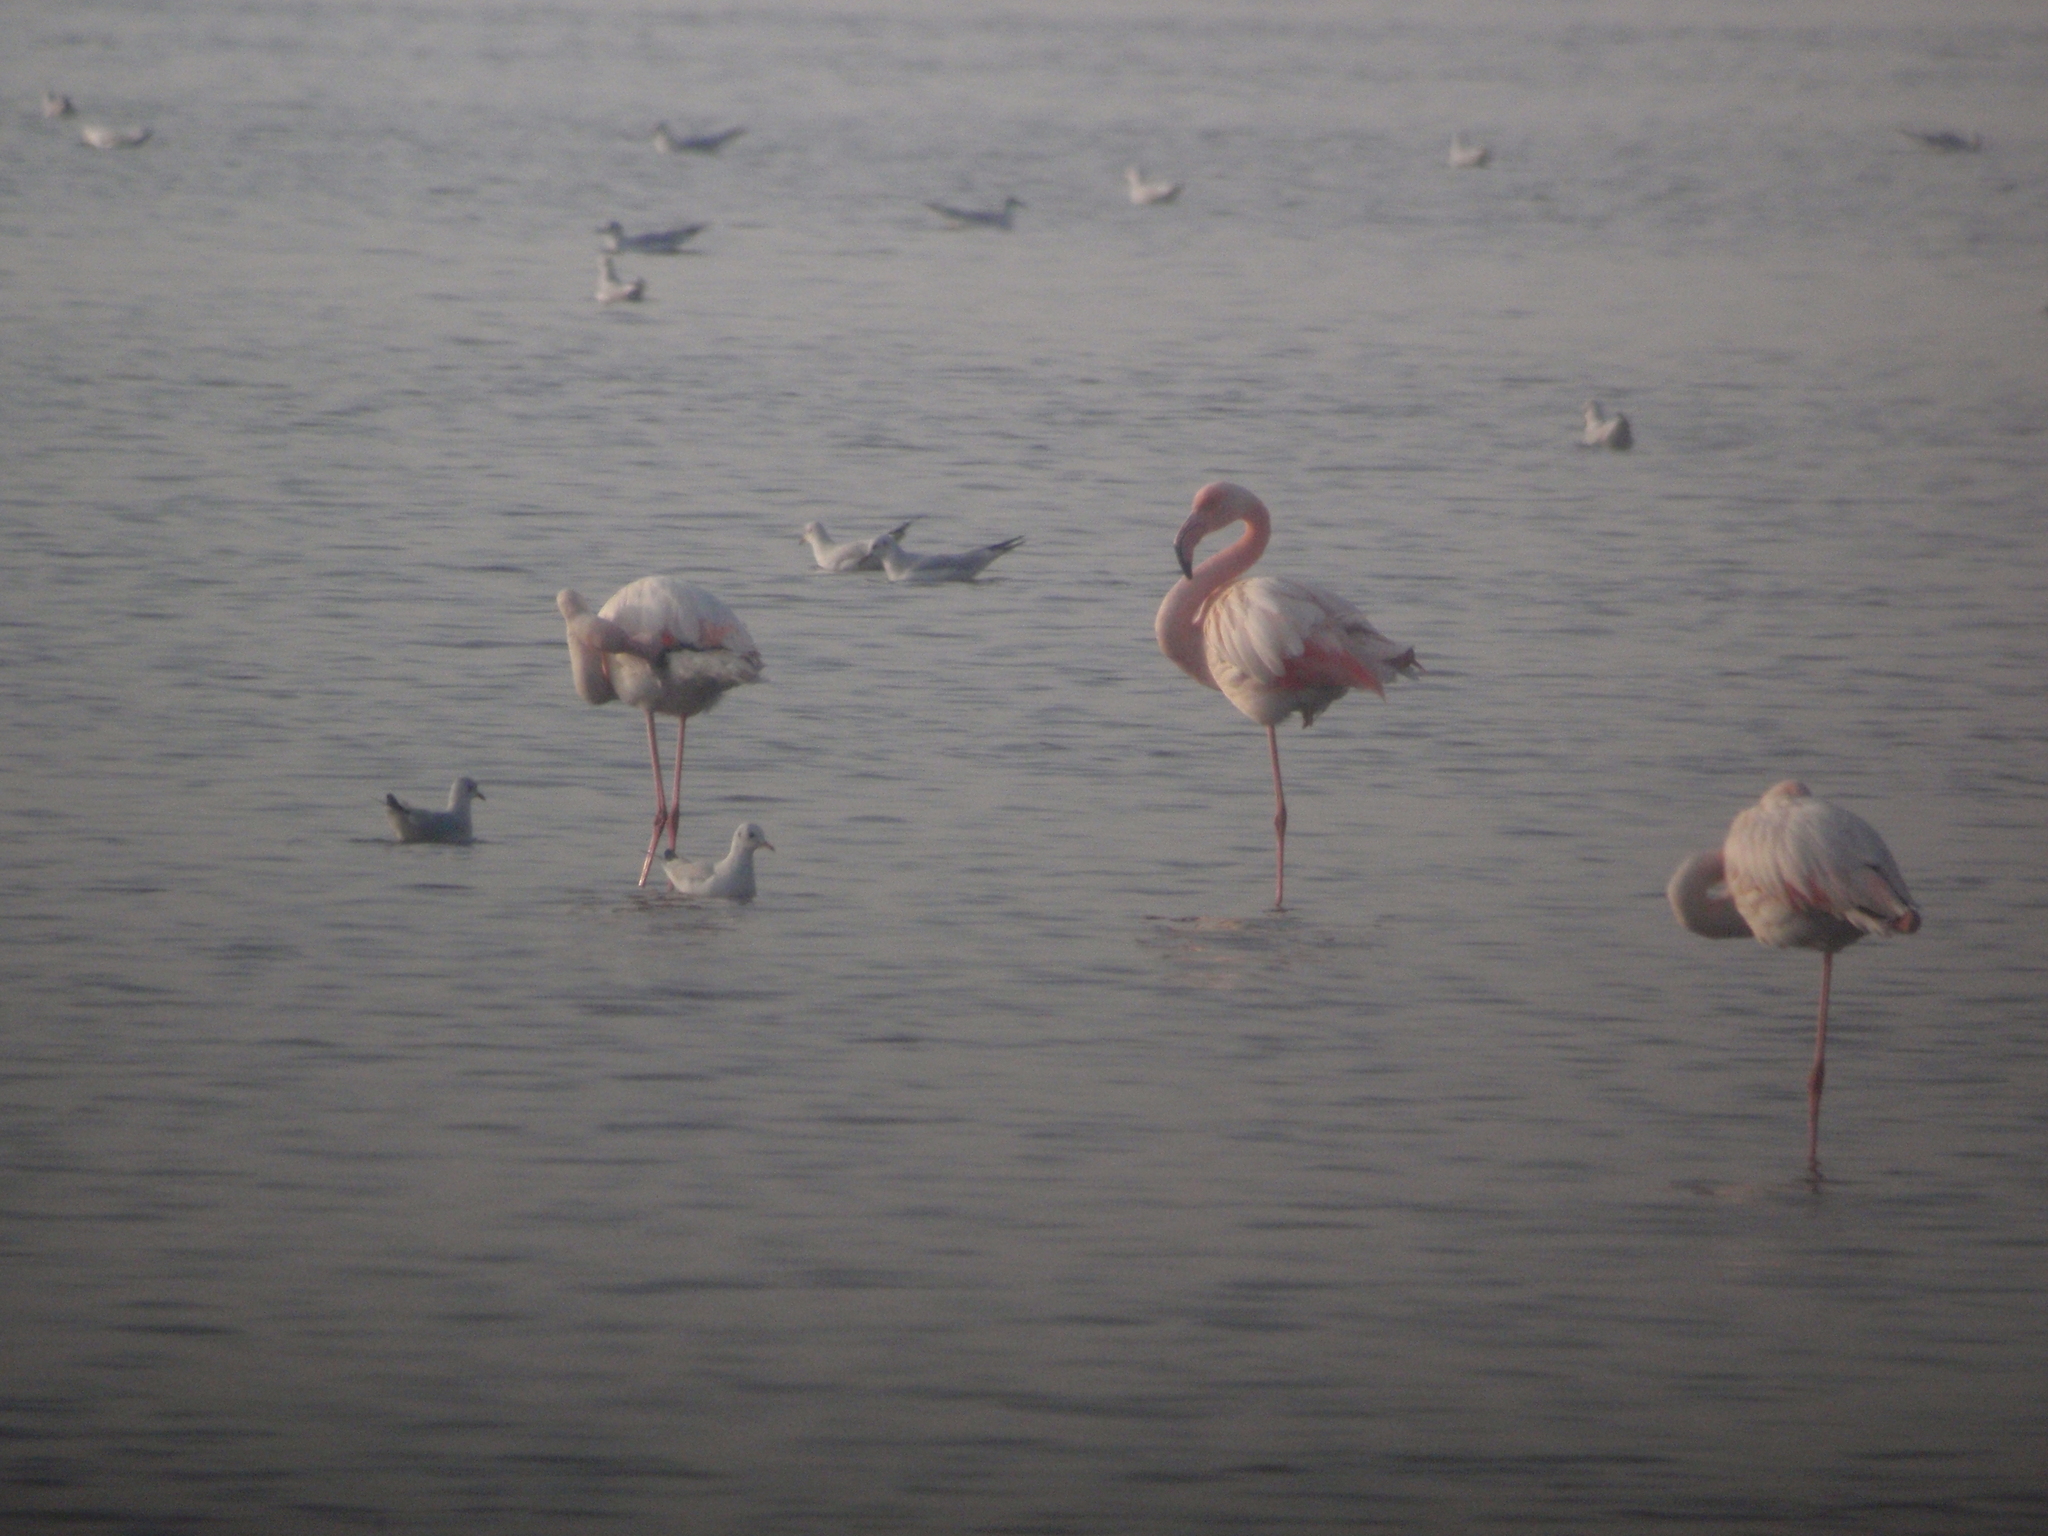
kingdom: Animalia
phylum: Chordata
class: Aves
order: Phoenicopteriformes
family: Phoenicopteridae
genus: Phoenicopterus
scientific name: Phoenicopterus roseus
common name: Greater flamingo
